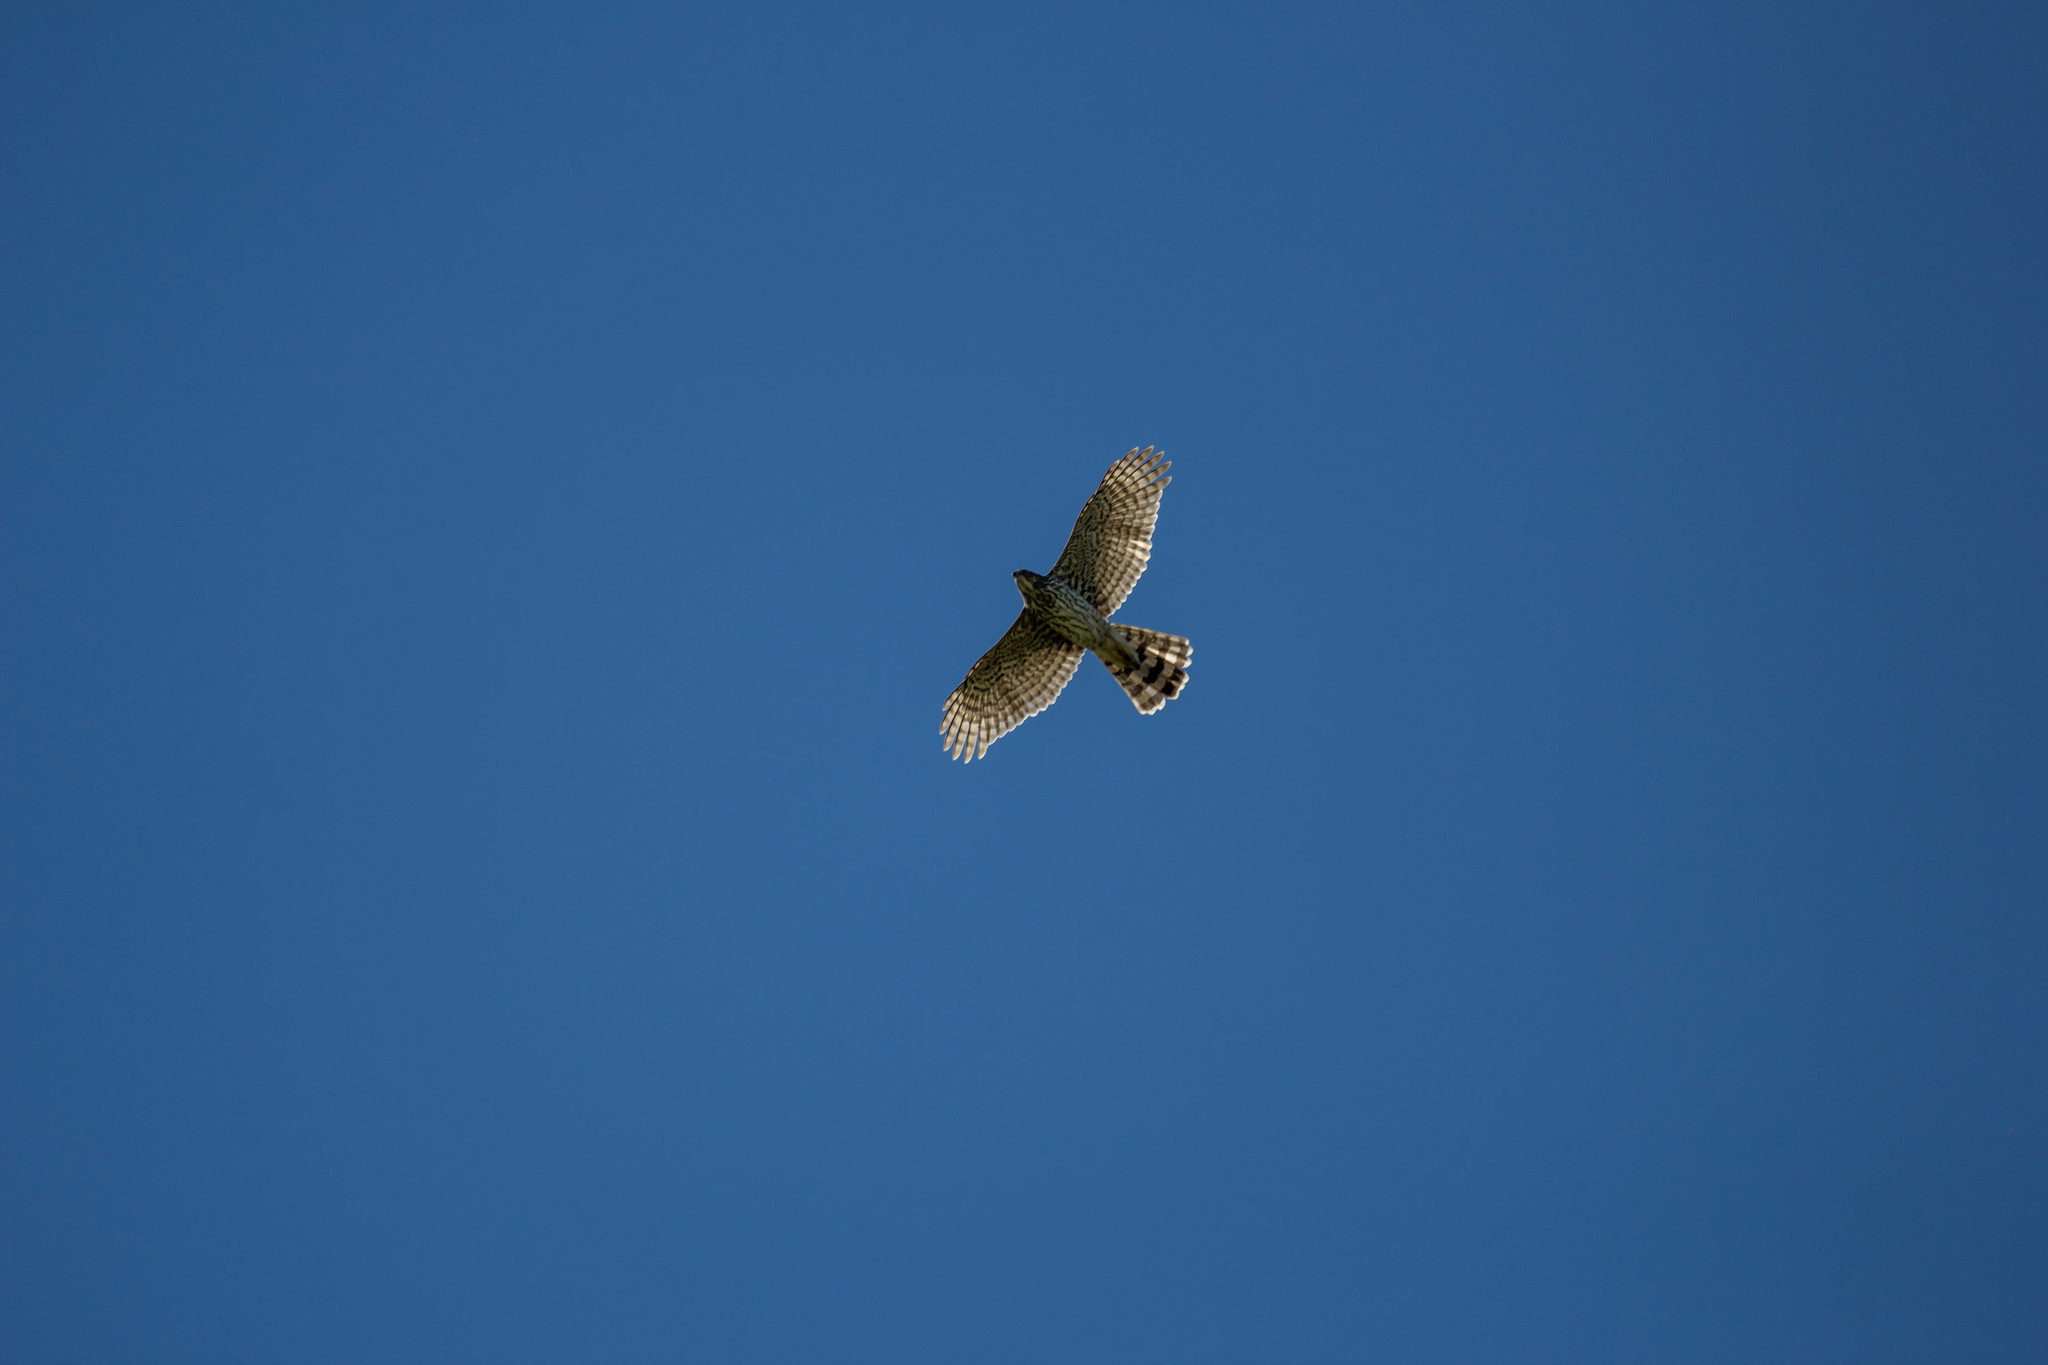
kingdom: Animalia
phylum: Chordata
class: Aves
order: Accipitriformes
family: Accipitridae
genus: Accipiter
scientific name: Accipiter cooperii
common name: Cooper's hawk
